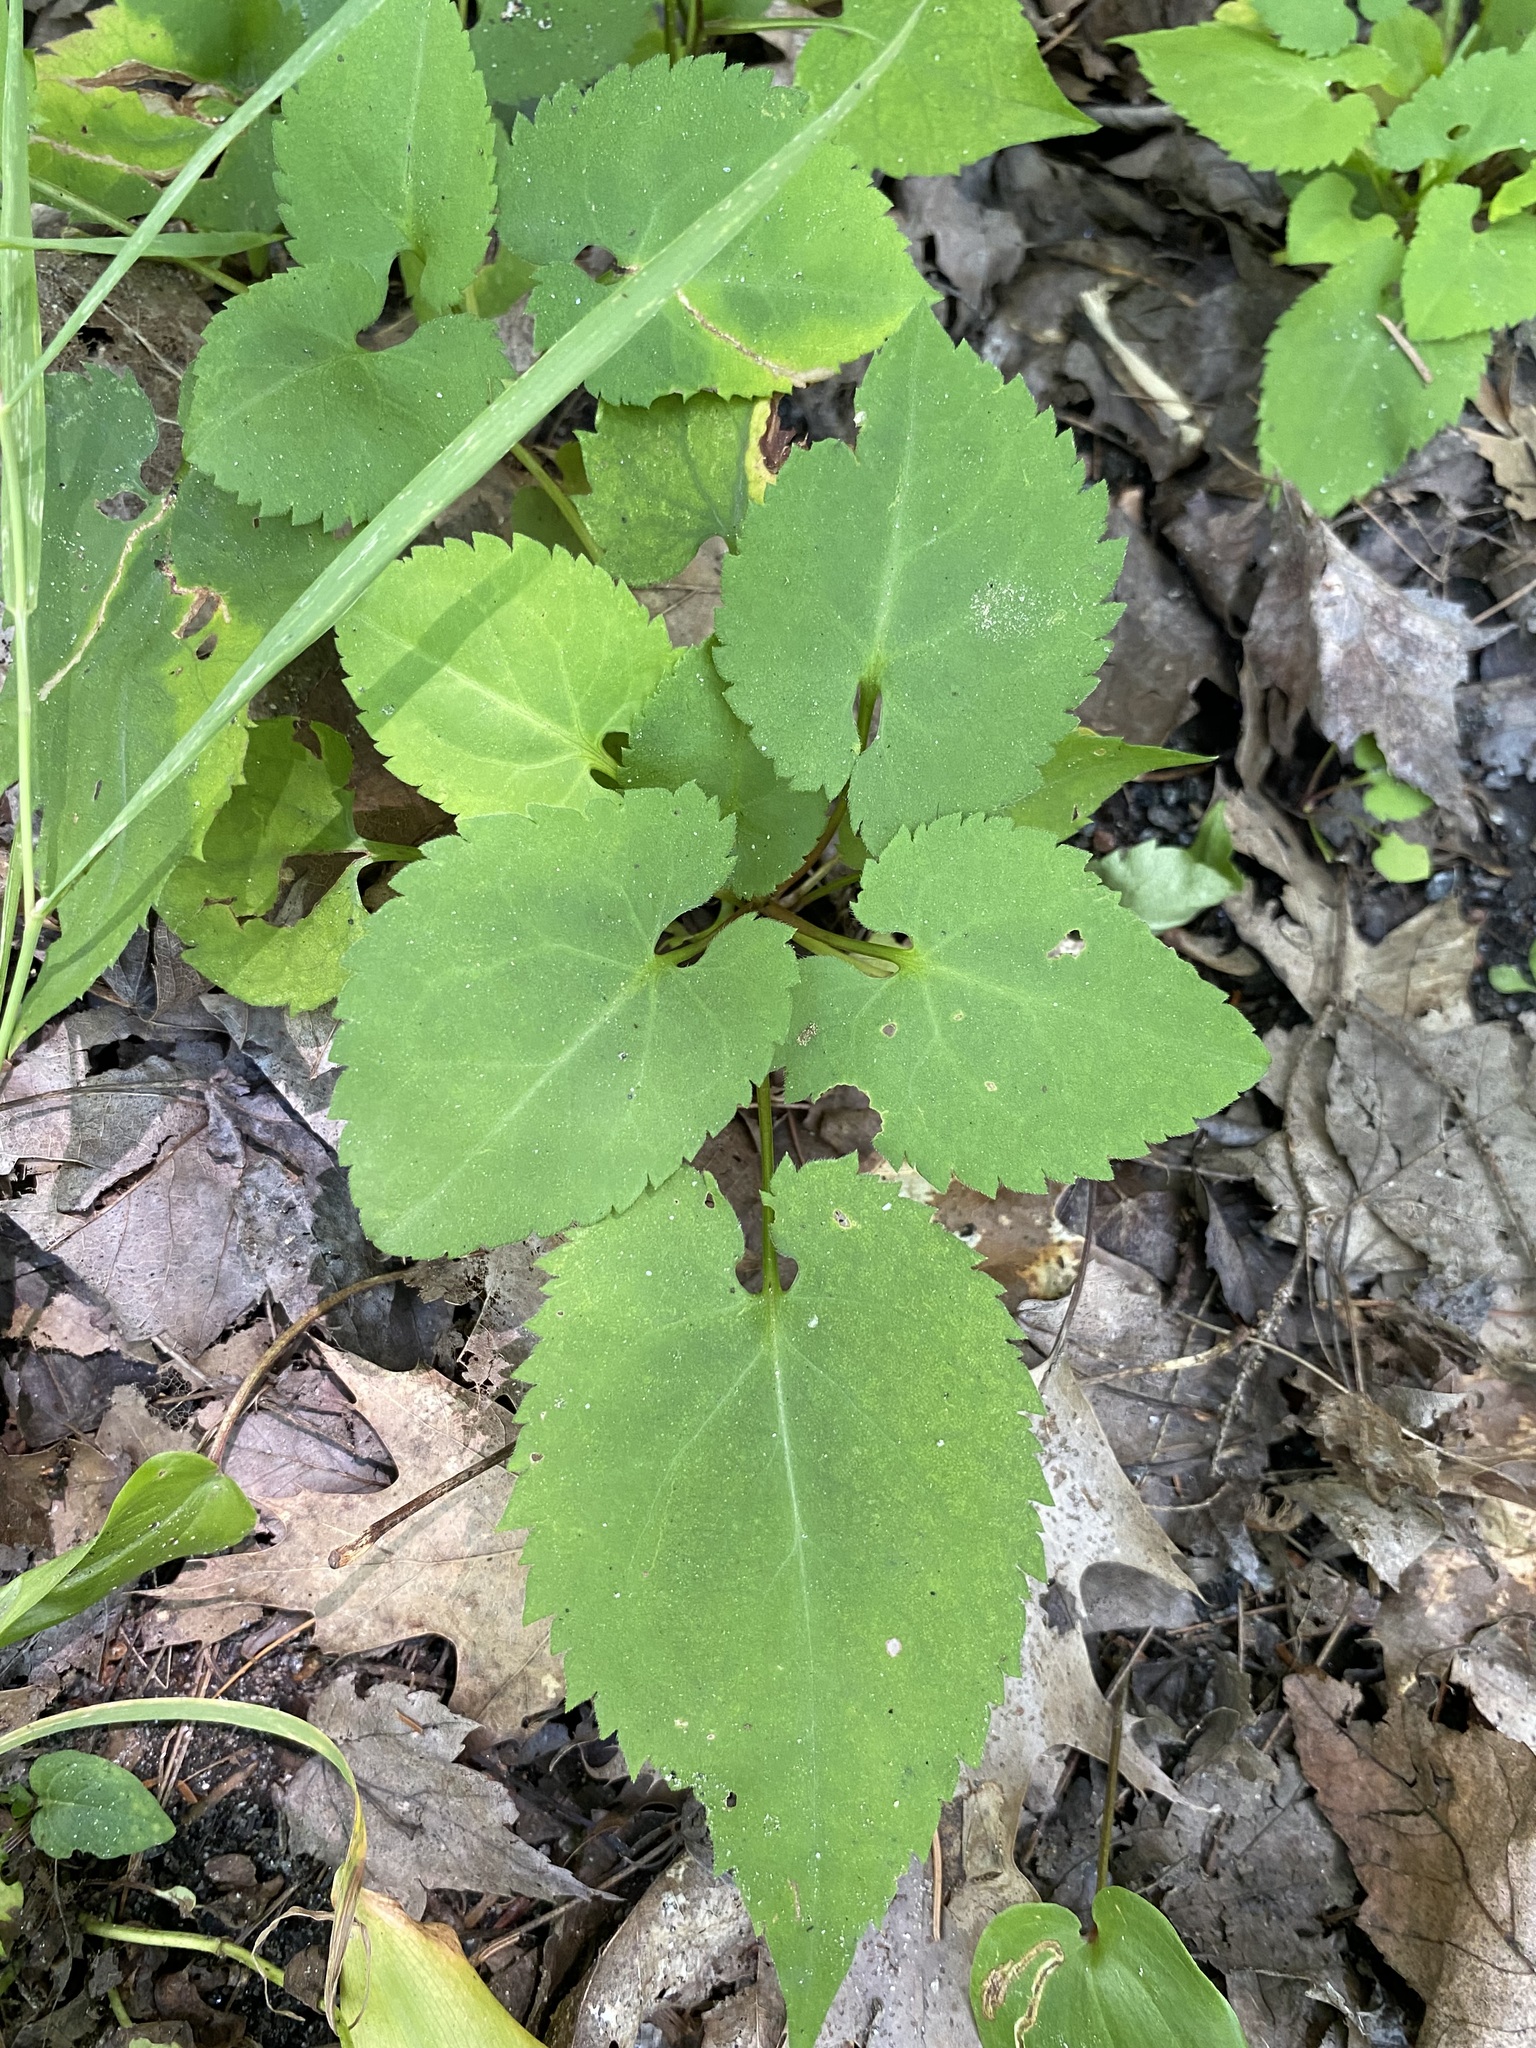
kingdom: Plantae
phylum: Tracheophyta
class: Magnoliopsida
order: Asterales
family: Asteraceae
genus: Symphyotrichum
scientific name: Symphyotrichum cordifolium
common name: Beeweed
